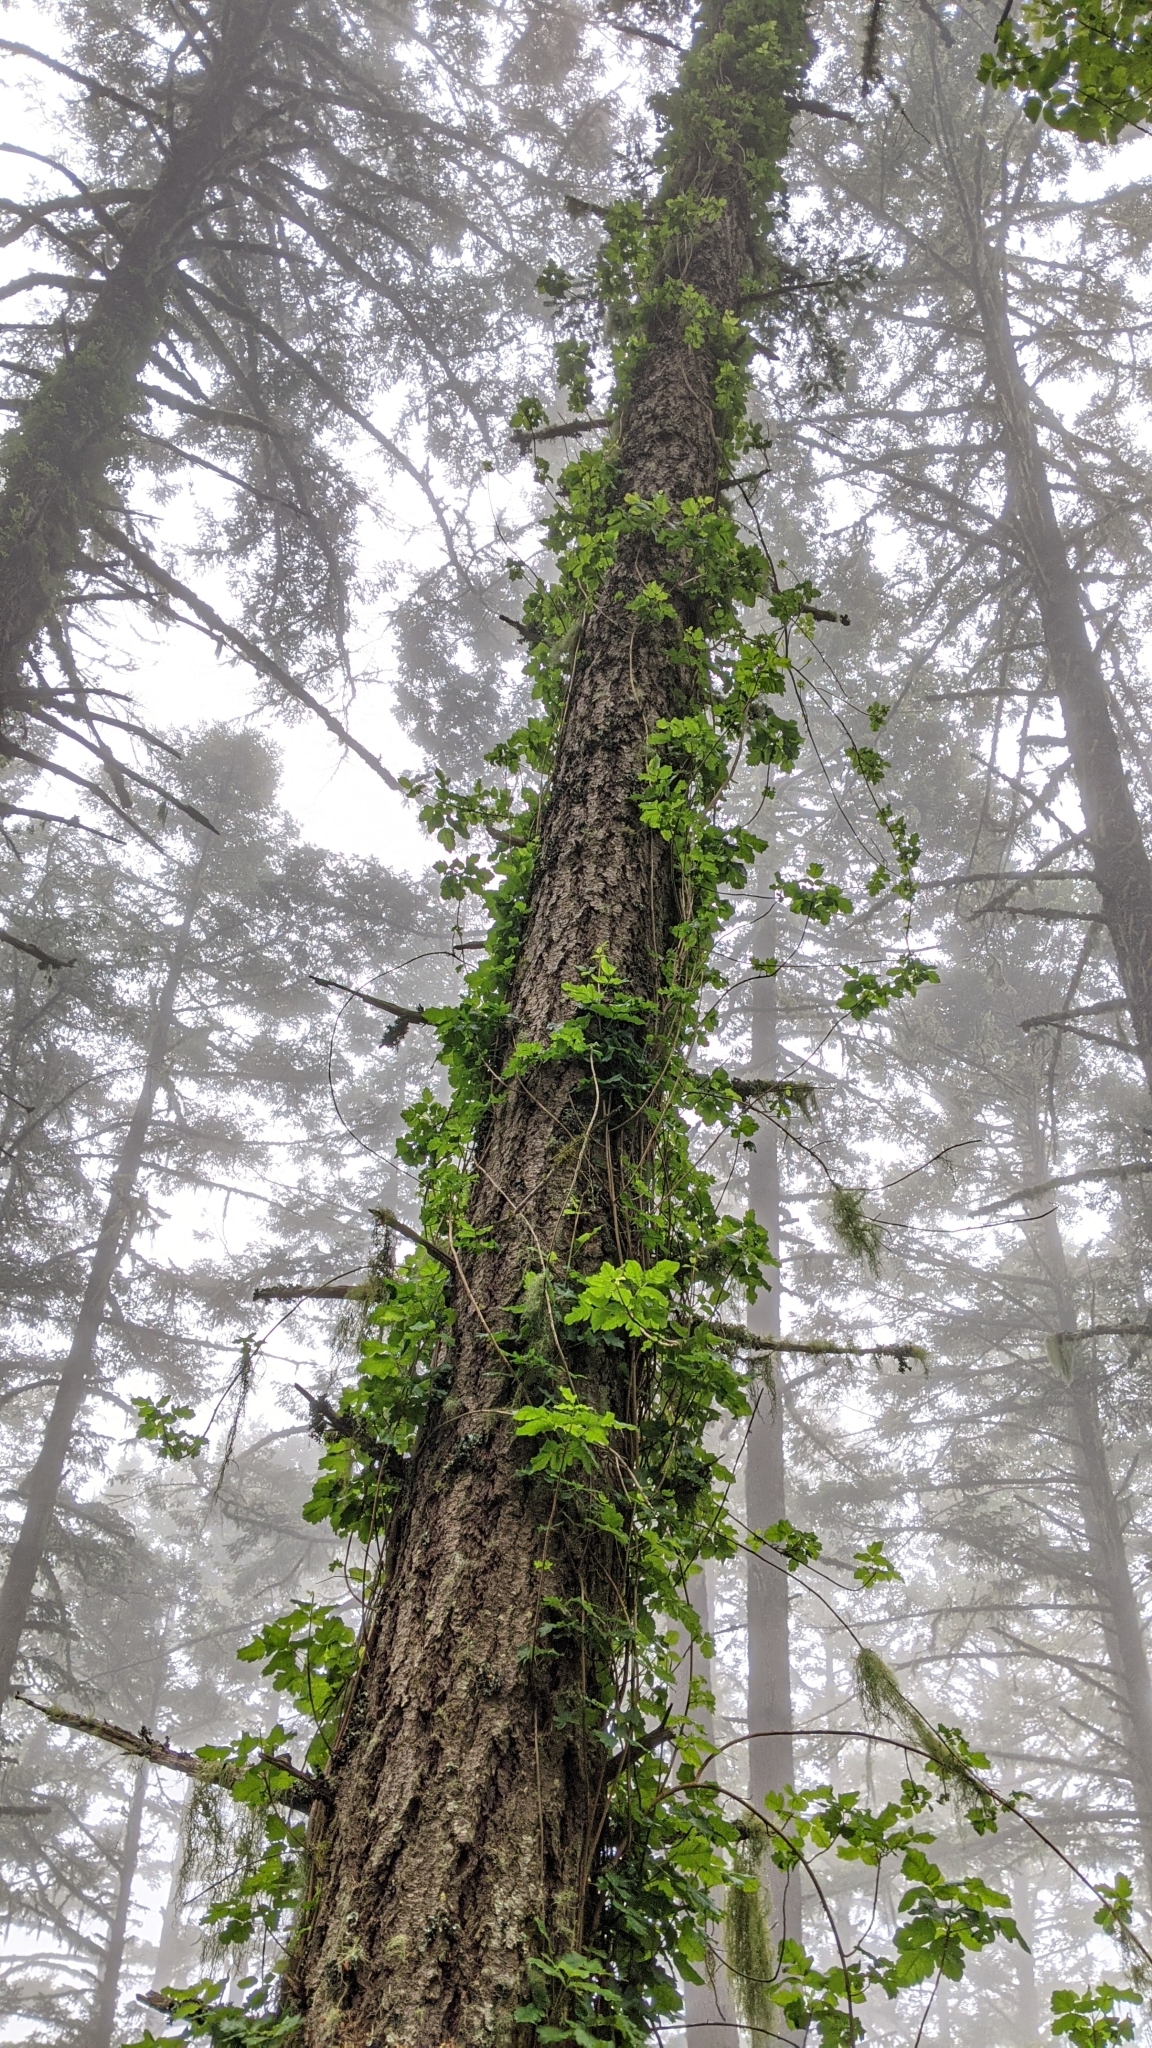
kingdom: Plantae
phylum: Tracheophyta
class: Magnoliopsida
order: Sapindales
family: Anacardiaceae
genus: Toxicodendron
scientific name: Toxicodendron diversilobum
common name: Pacific poison-oak
